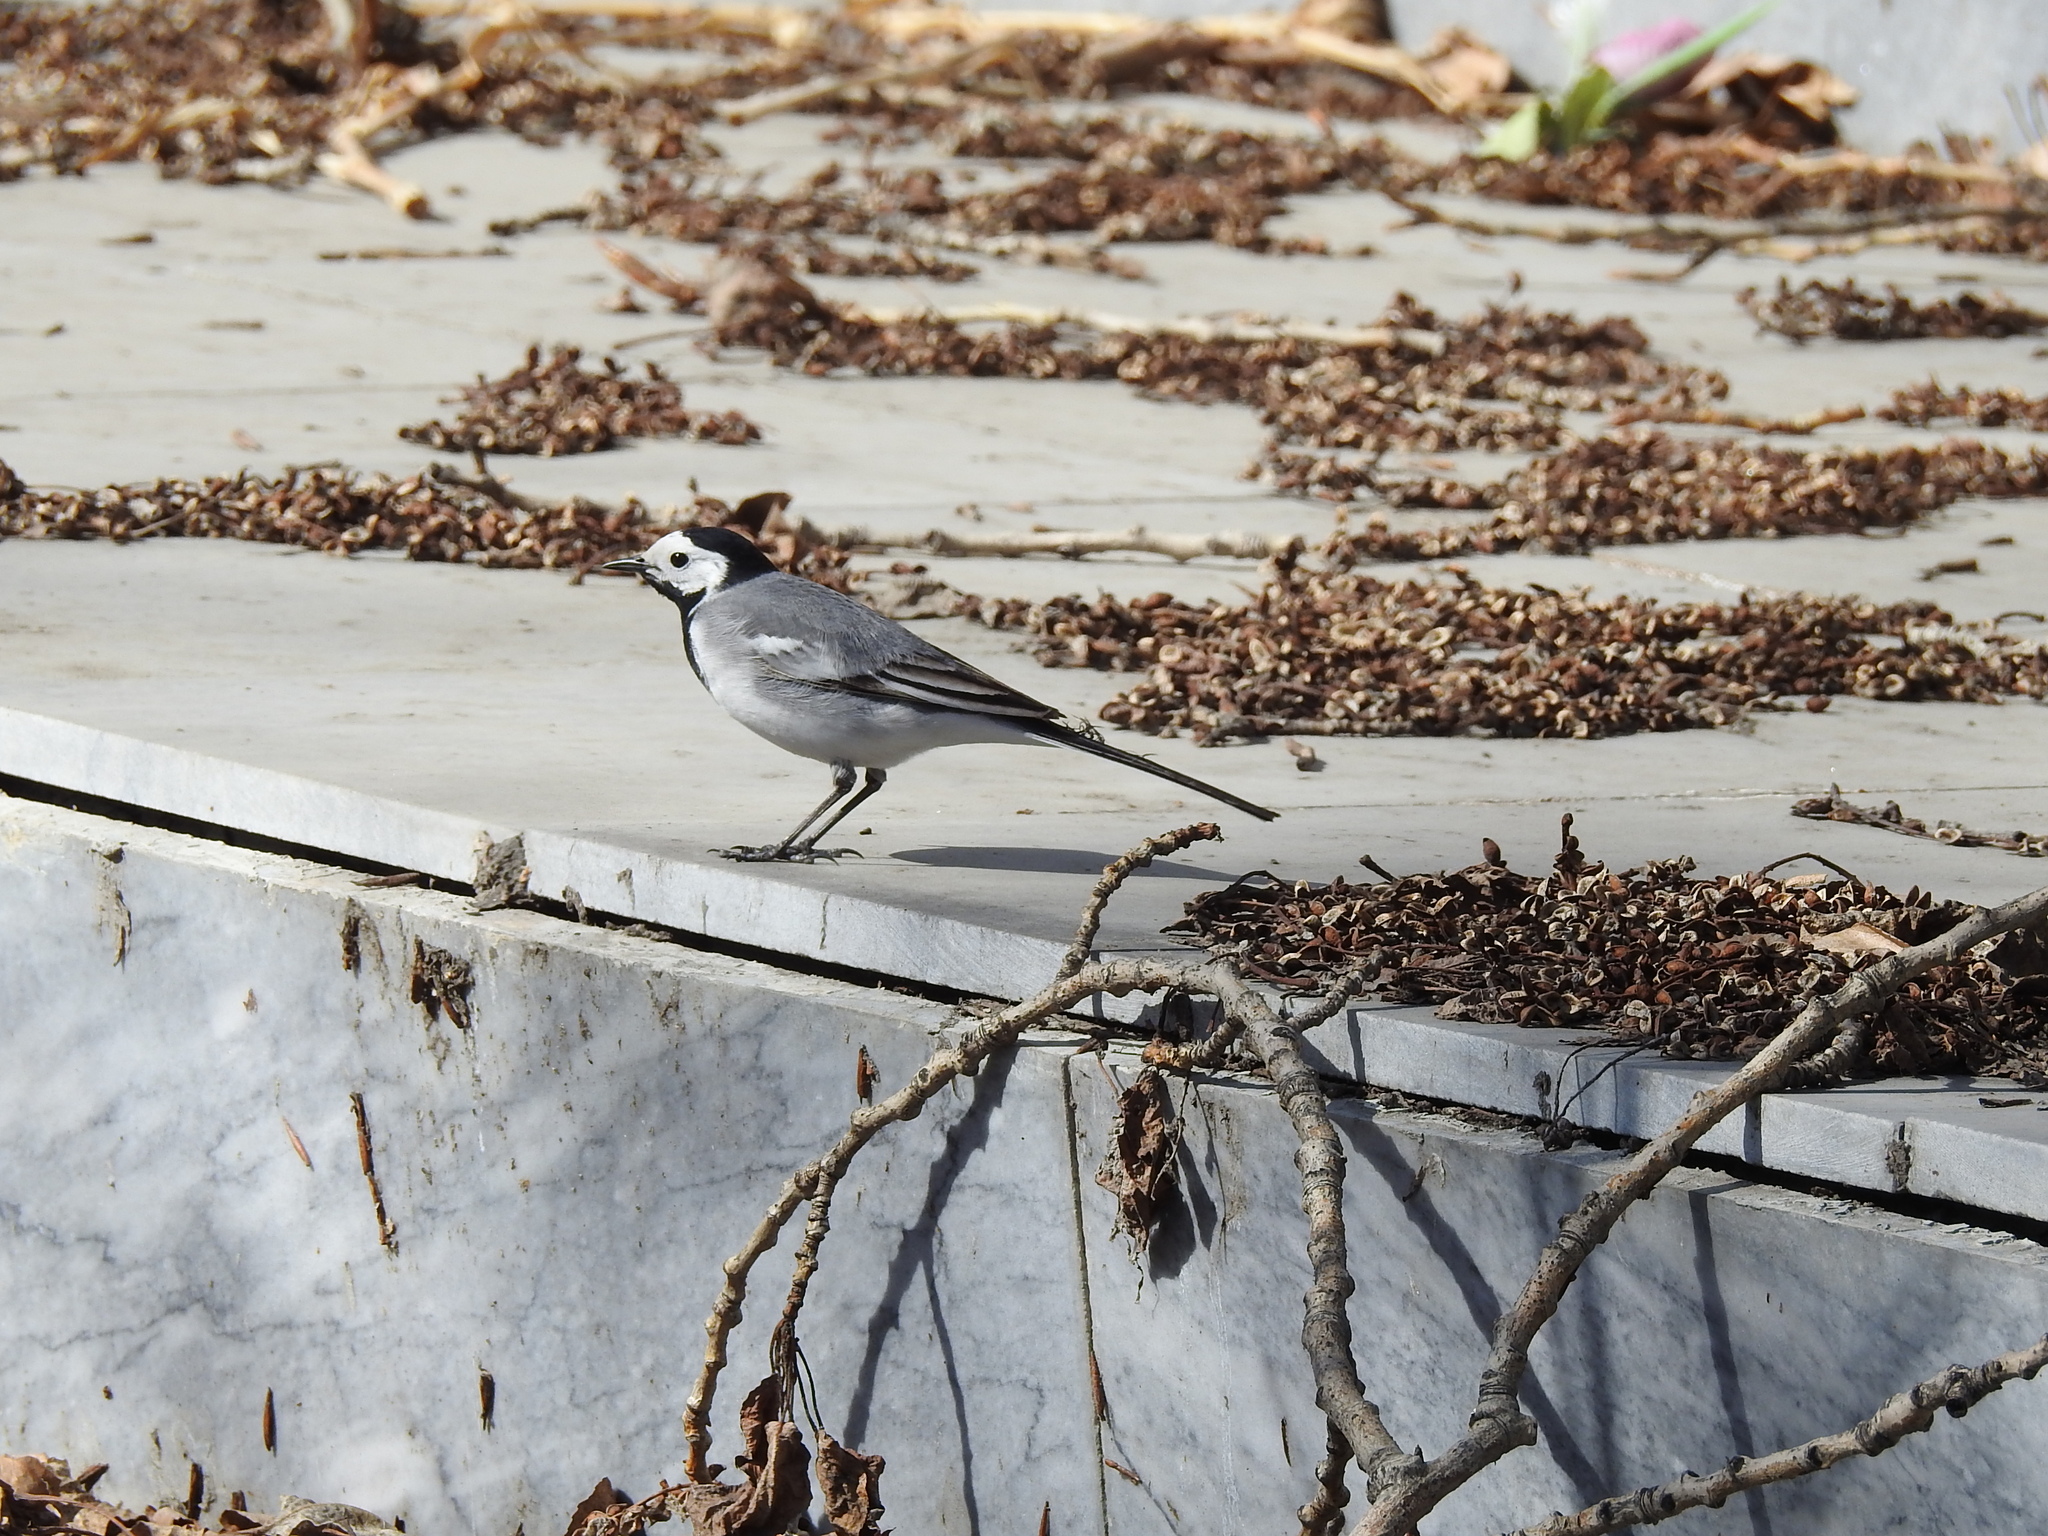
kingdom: Animalia
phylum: Chordata
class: Aves
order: Passeriformes
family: Motacillidae
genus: Motacilla
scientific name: Motacilla alba
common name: White wagtail
